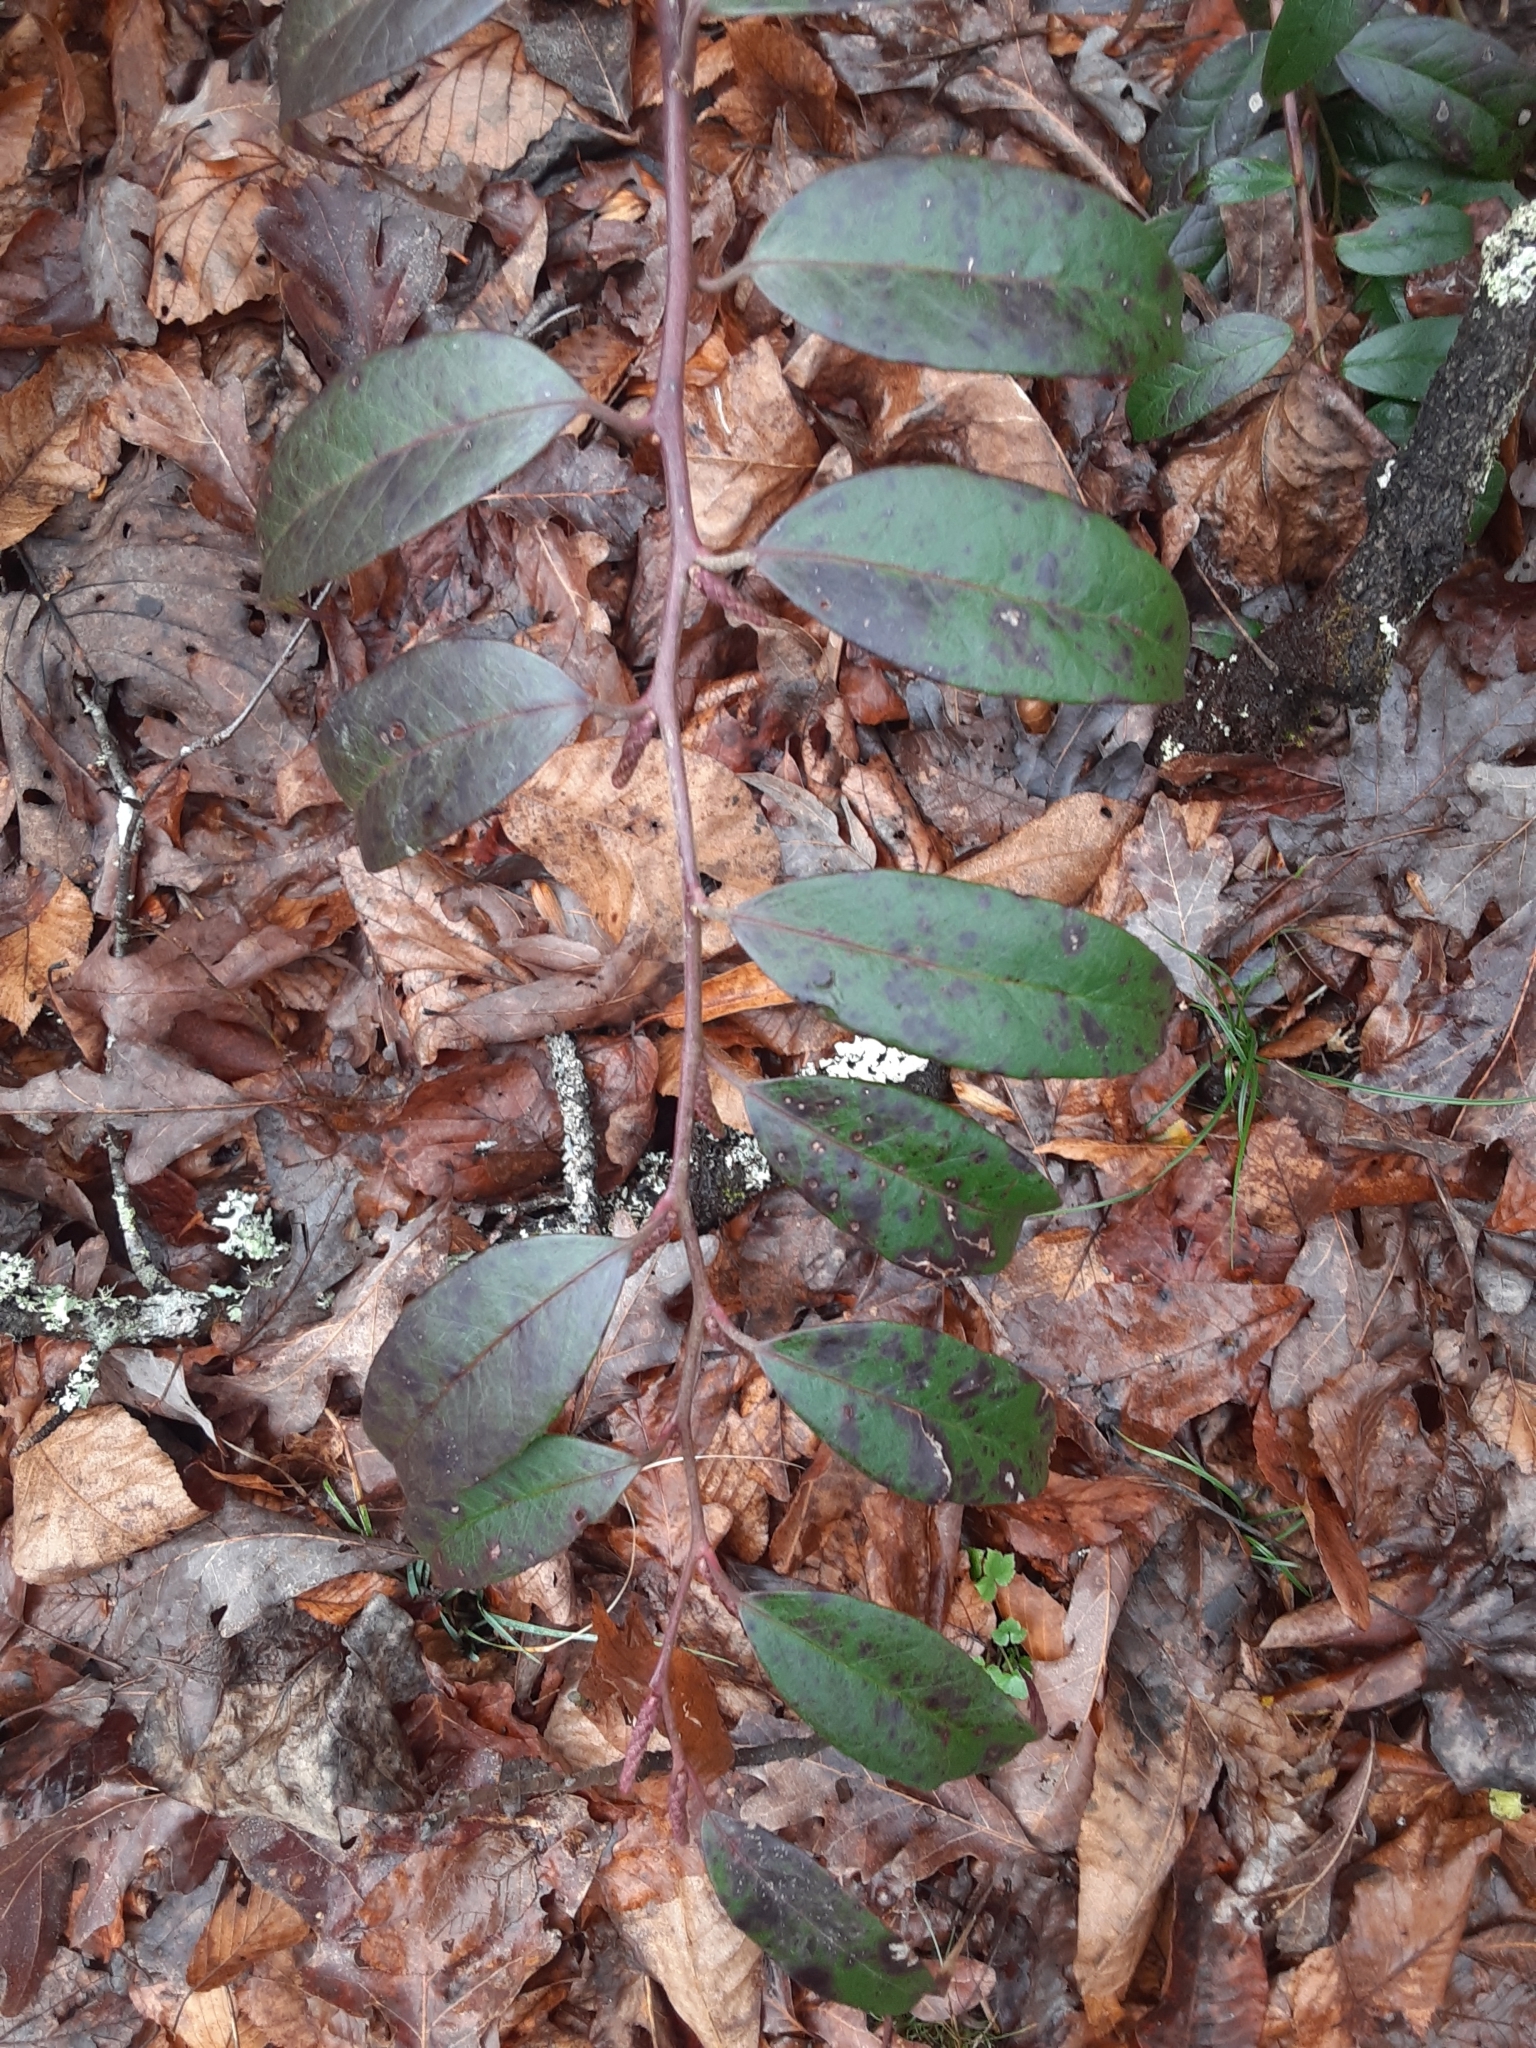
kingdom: Plantae
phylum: Tracheophyta
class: Magnoliopsida
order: Ericales
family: Ericaceae
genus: Leucothoe
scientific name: Leucothoe fontanesiana
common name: Fetterbush
